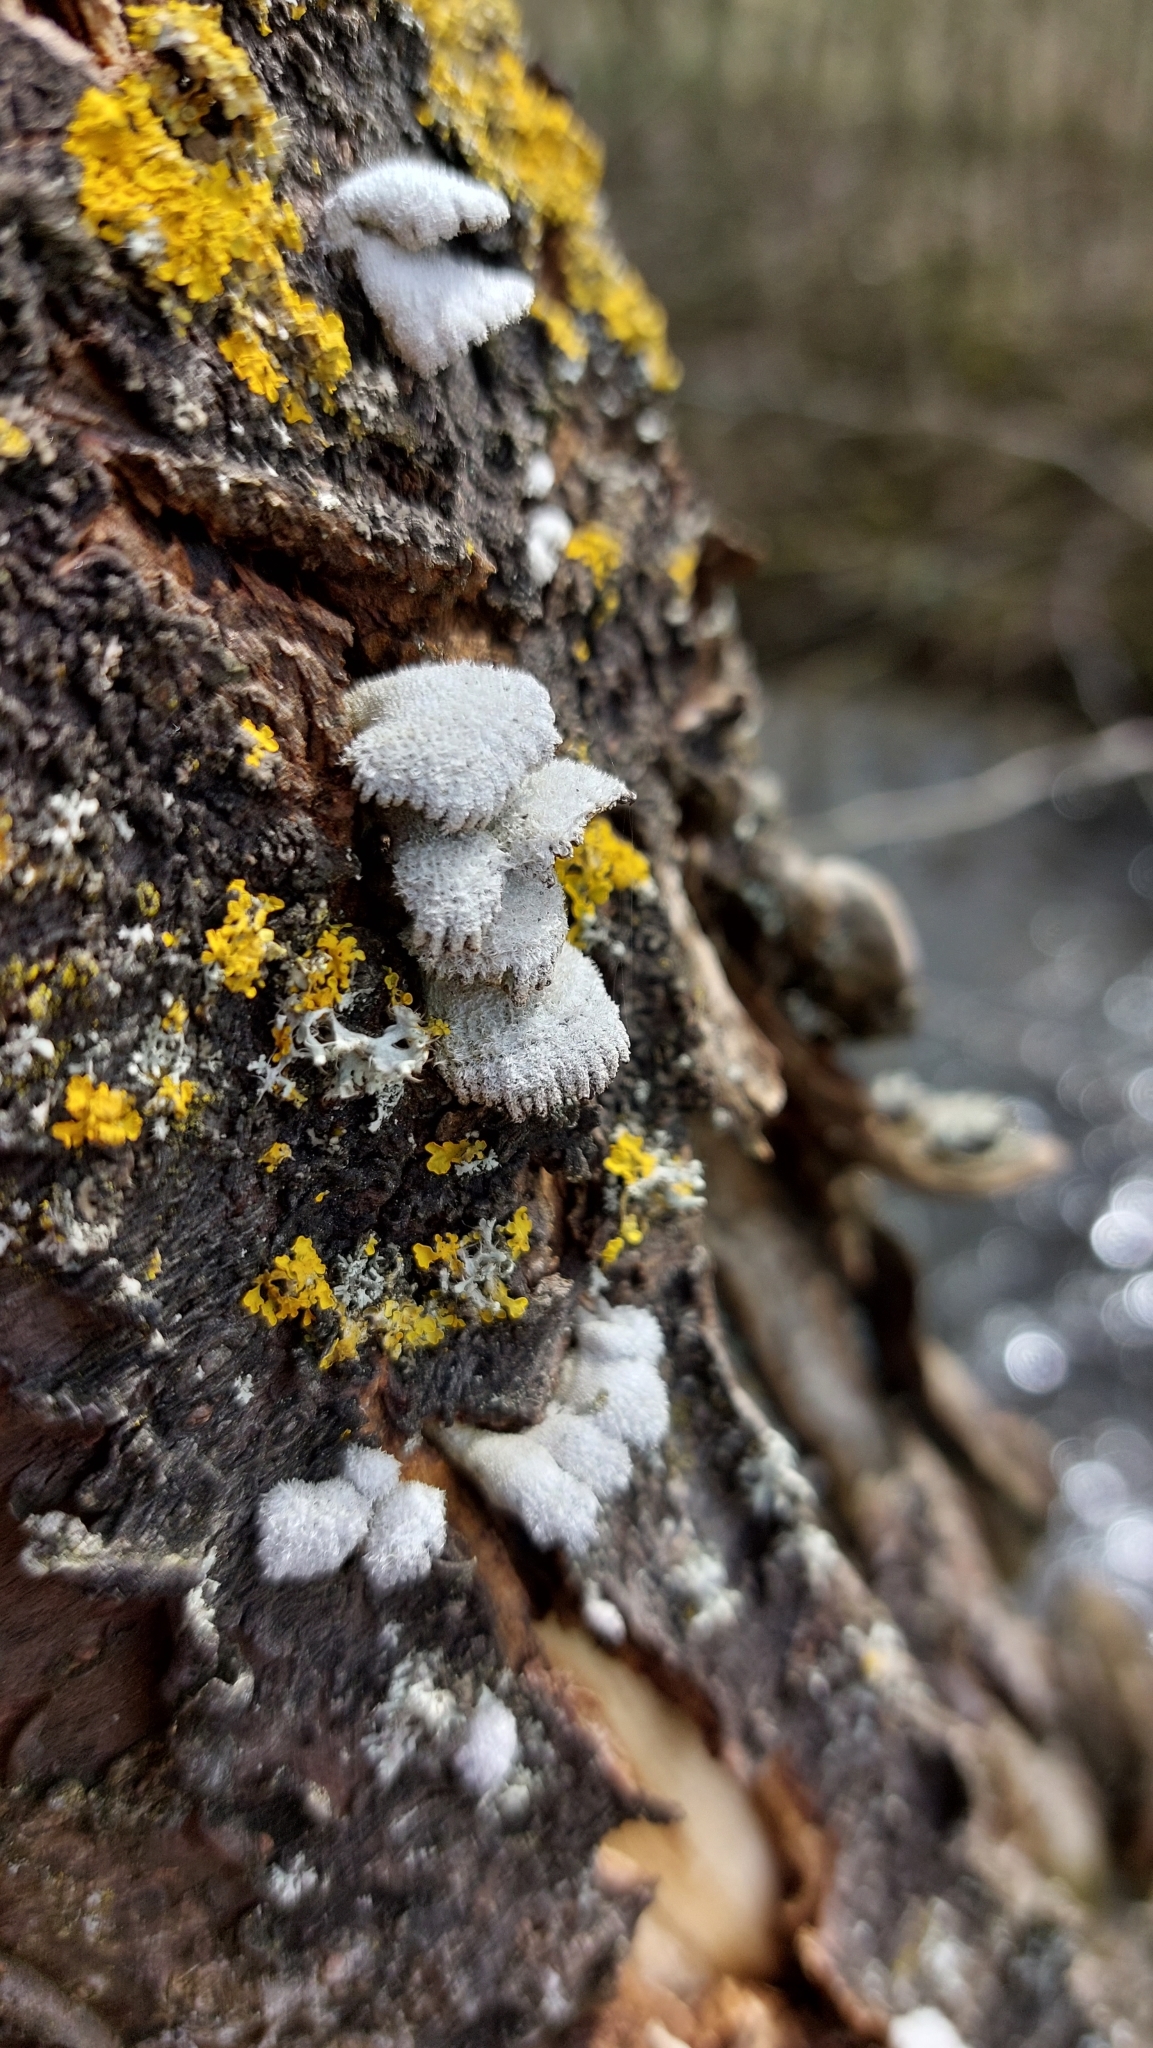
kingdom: Fungi
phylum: Basidiomycota
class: Agaricomycetes
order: Agaricales
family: Schizophyllaceae
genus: Schizophyllum
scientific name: Schizophyllum commune
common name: Common porecrust
